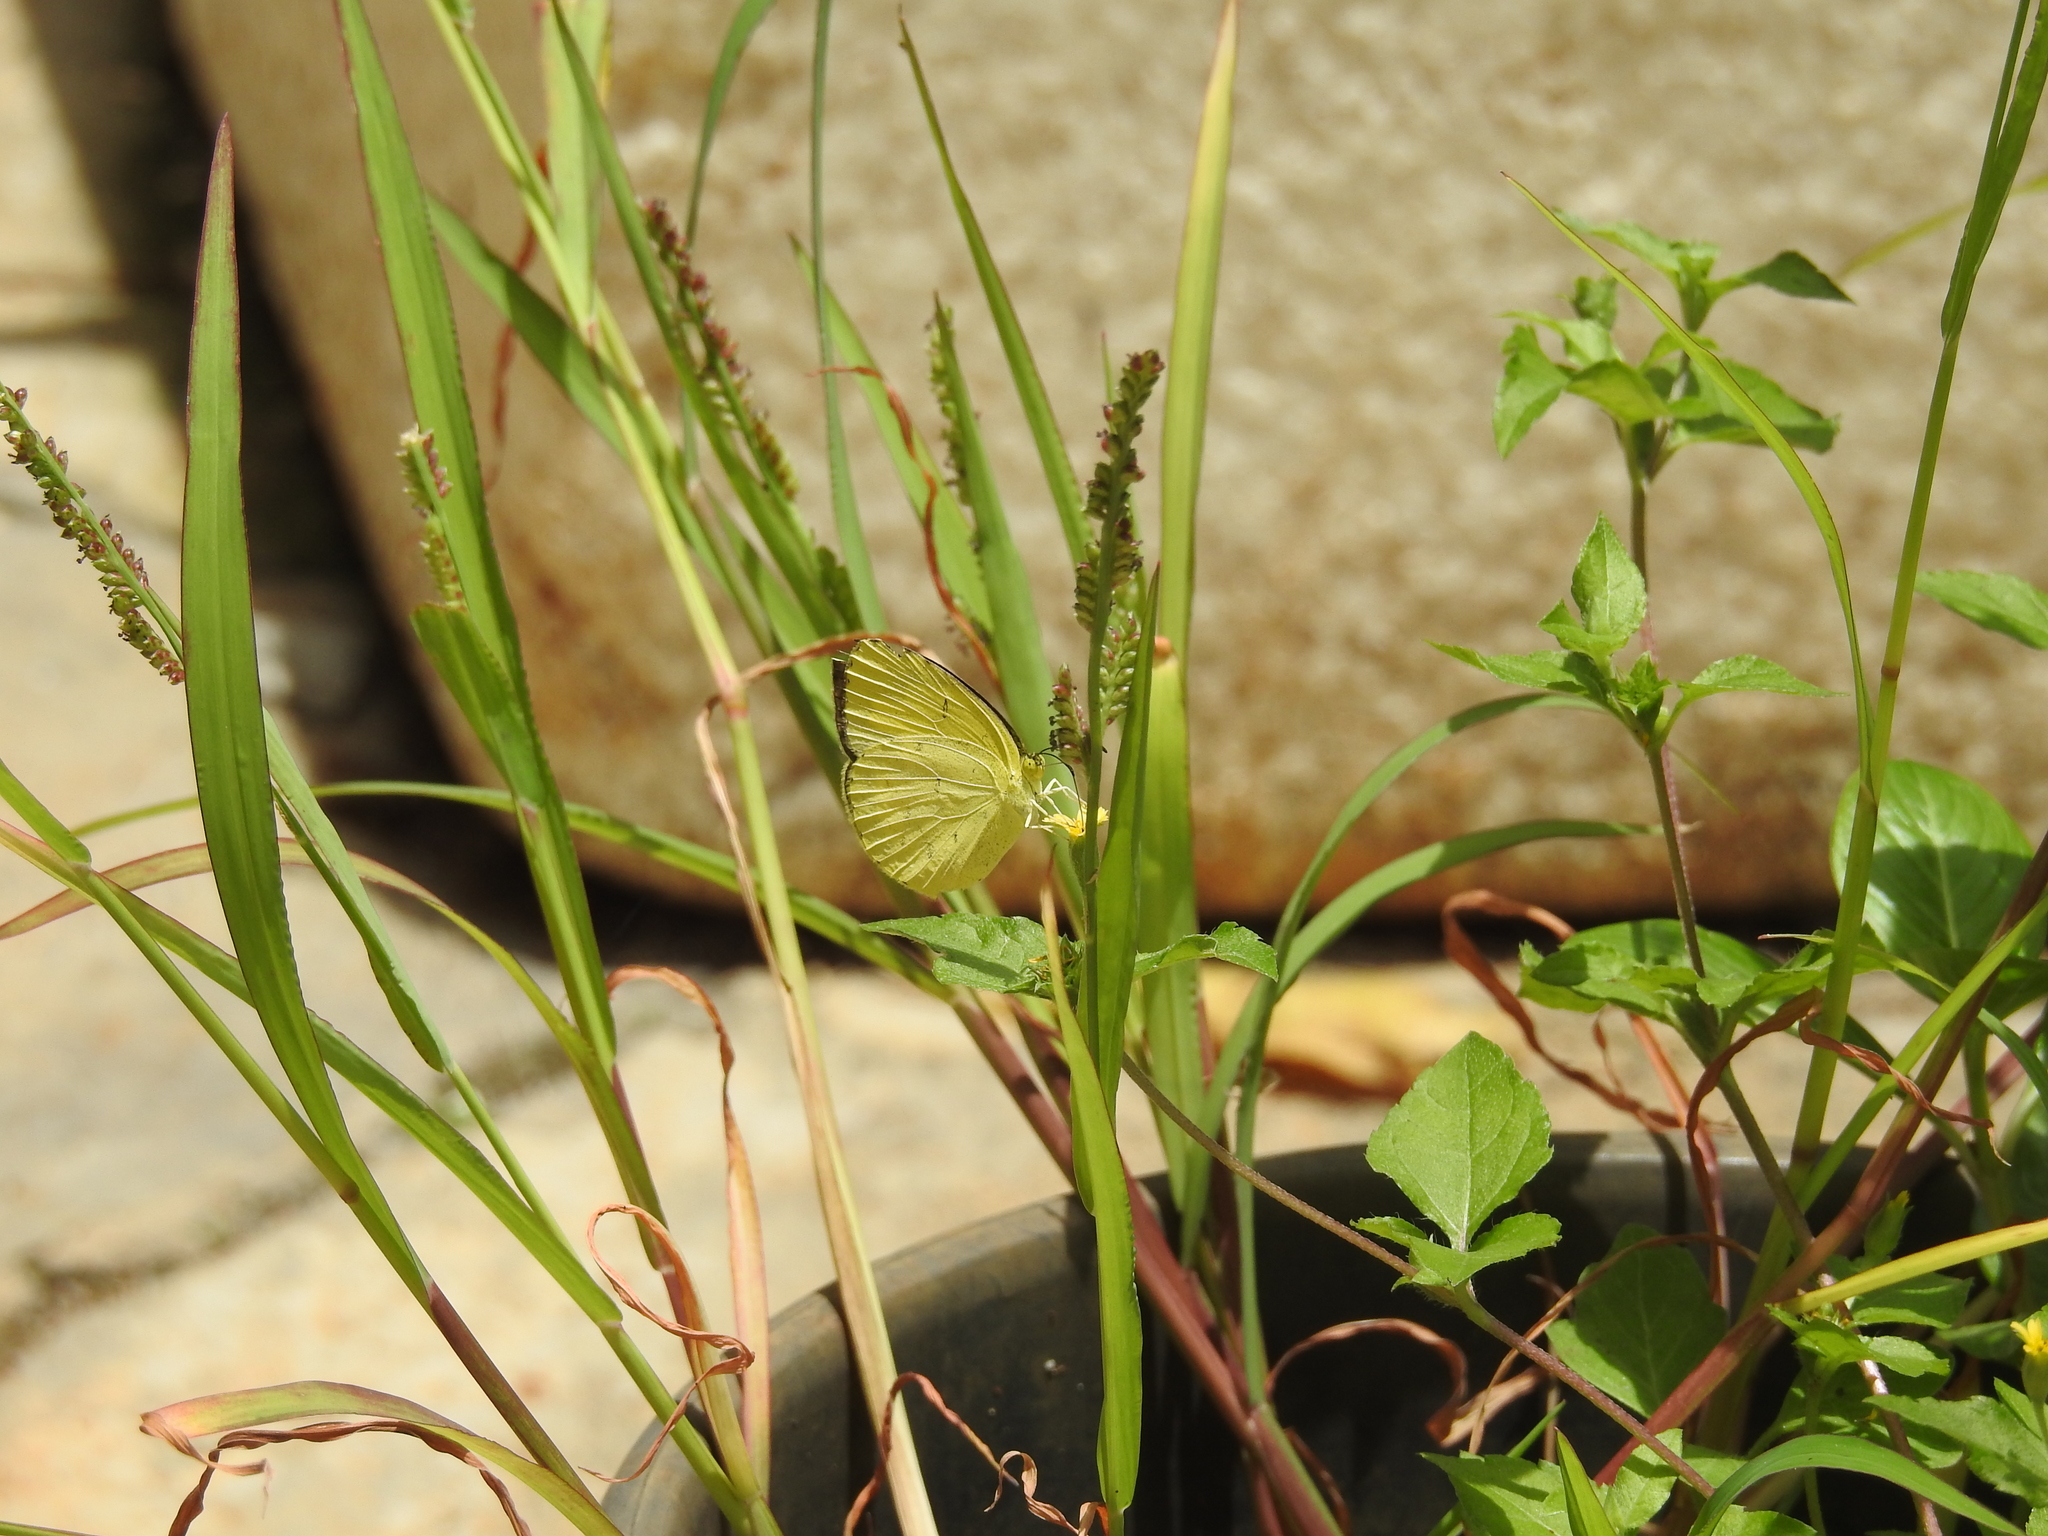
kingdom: Animalia
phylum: Arthropoda
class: Insecta
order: Lepidoptera
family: Pieridae
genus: Eurema
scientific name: Eurema hecabe
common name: Pale grass yellow
